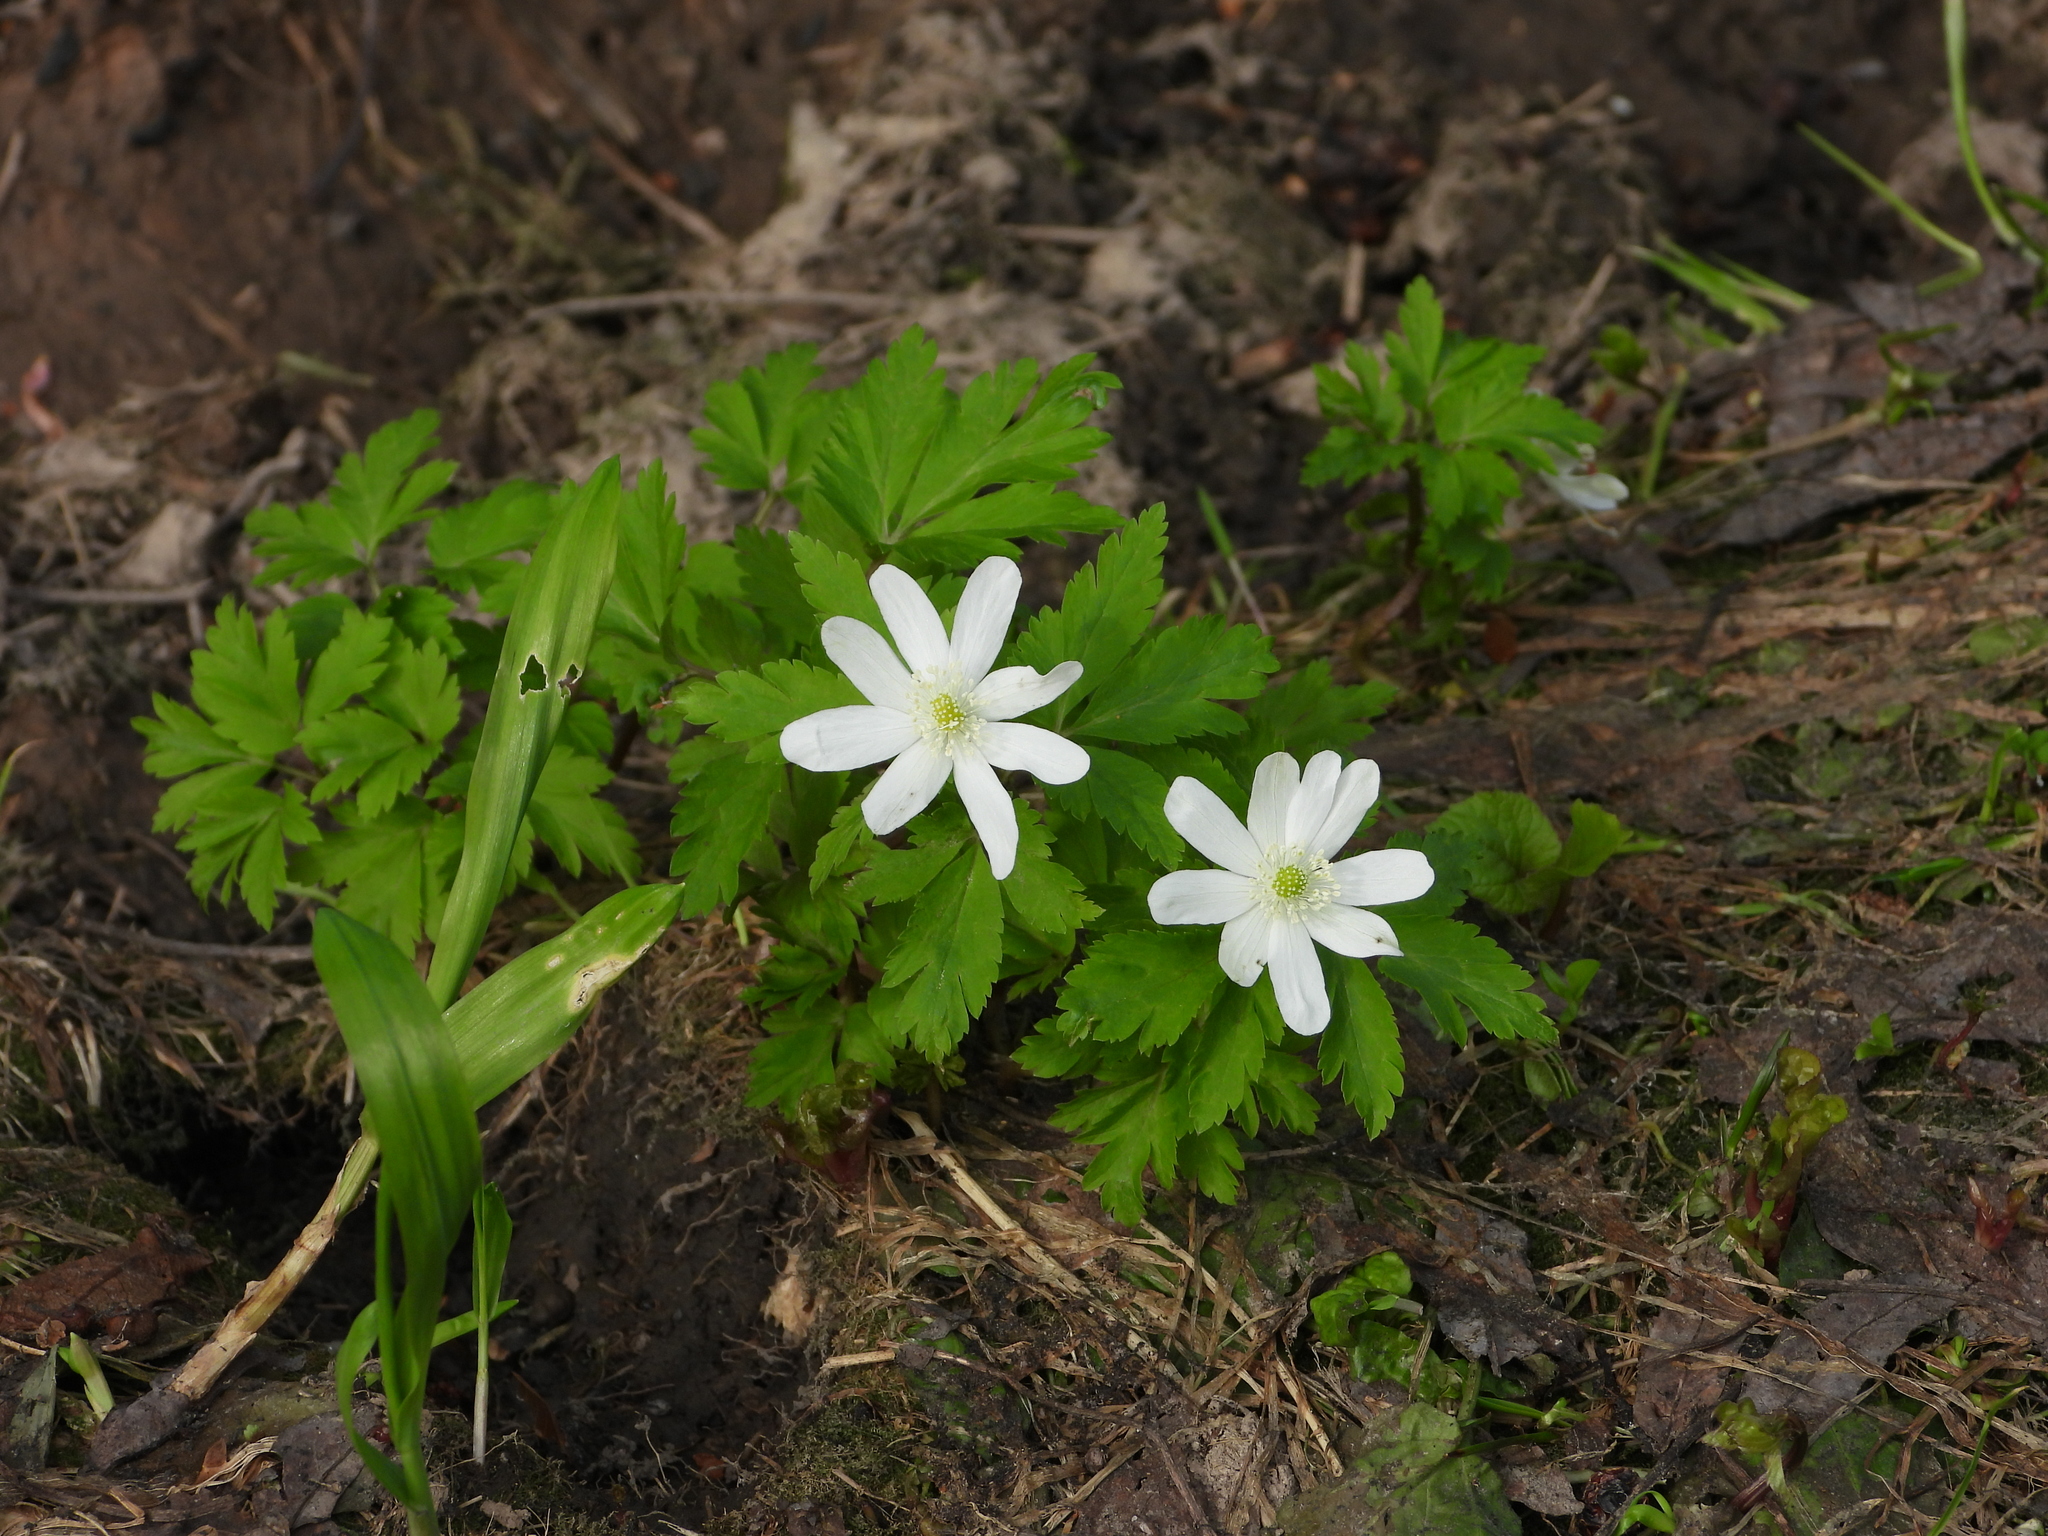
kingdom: Plantae
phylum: Tracheophyta
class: Magnoliopsida
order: Ranunculales
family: Ranunculaceae
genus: Anemone
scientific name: Anemone altaica
